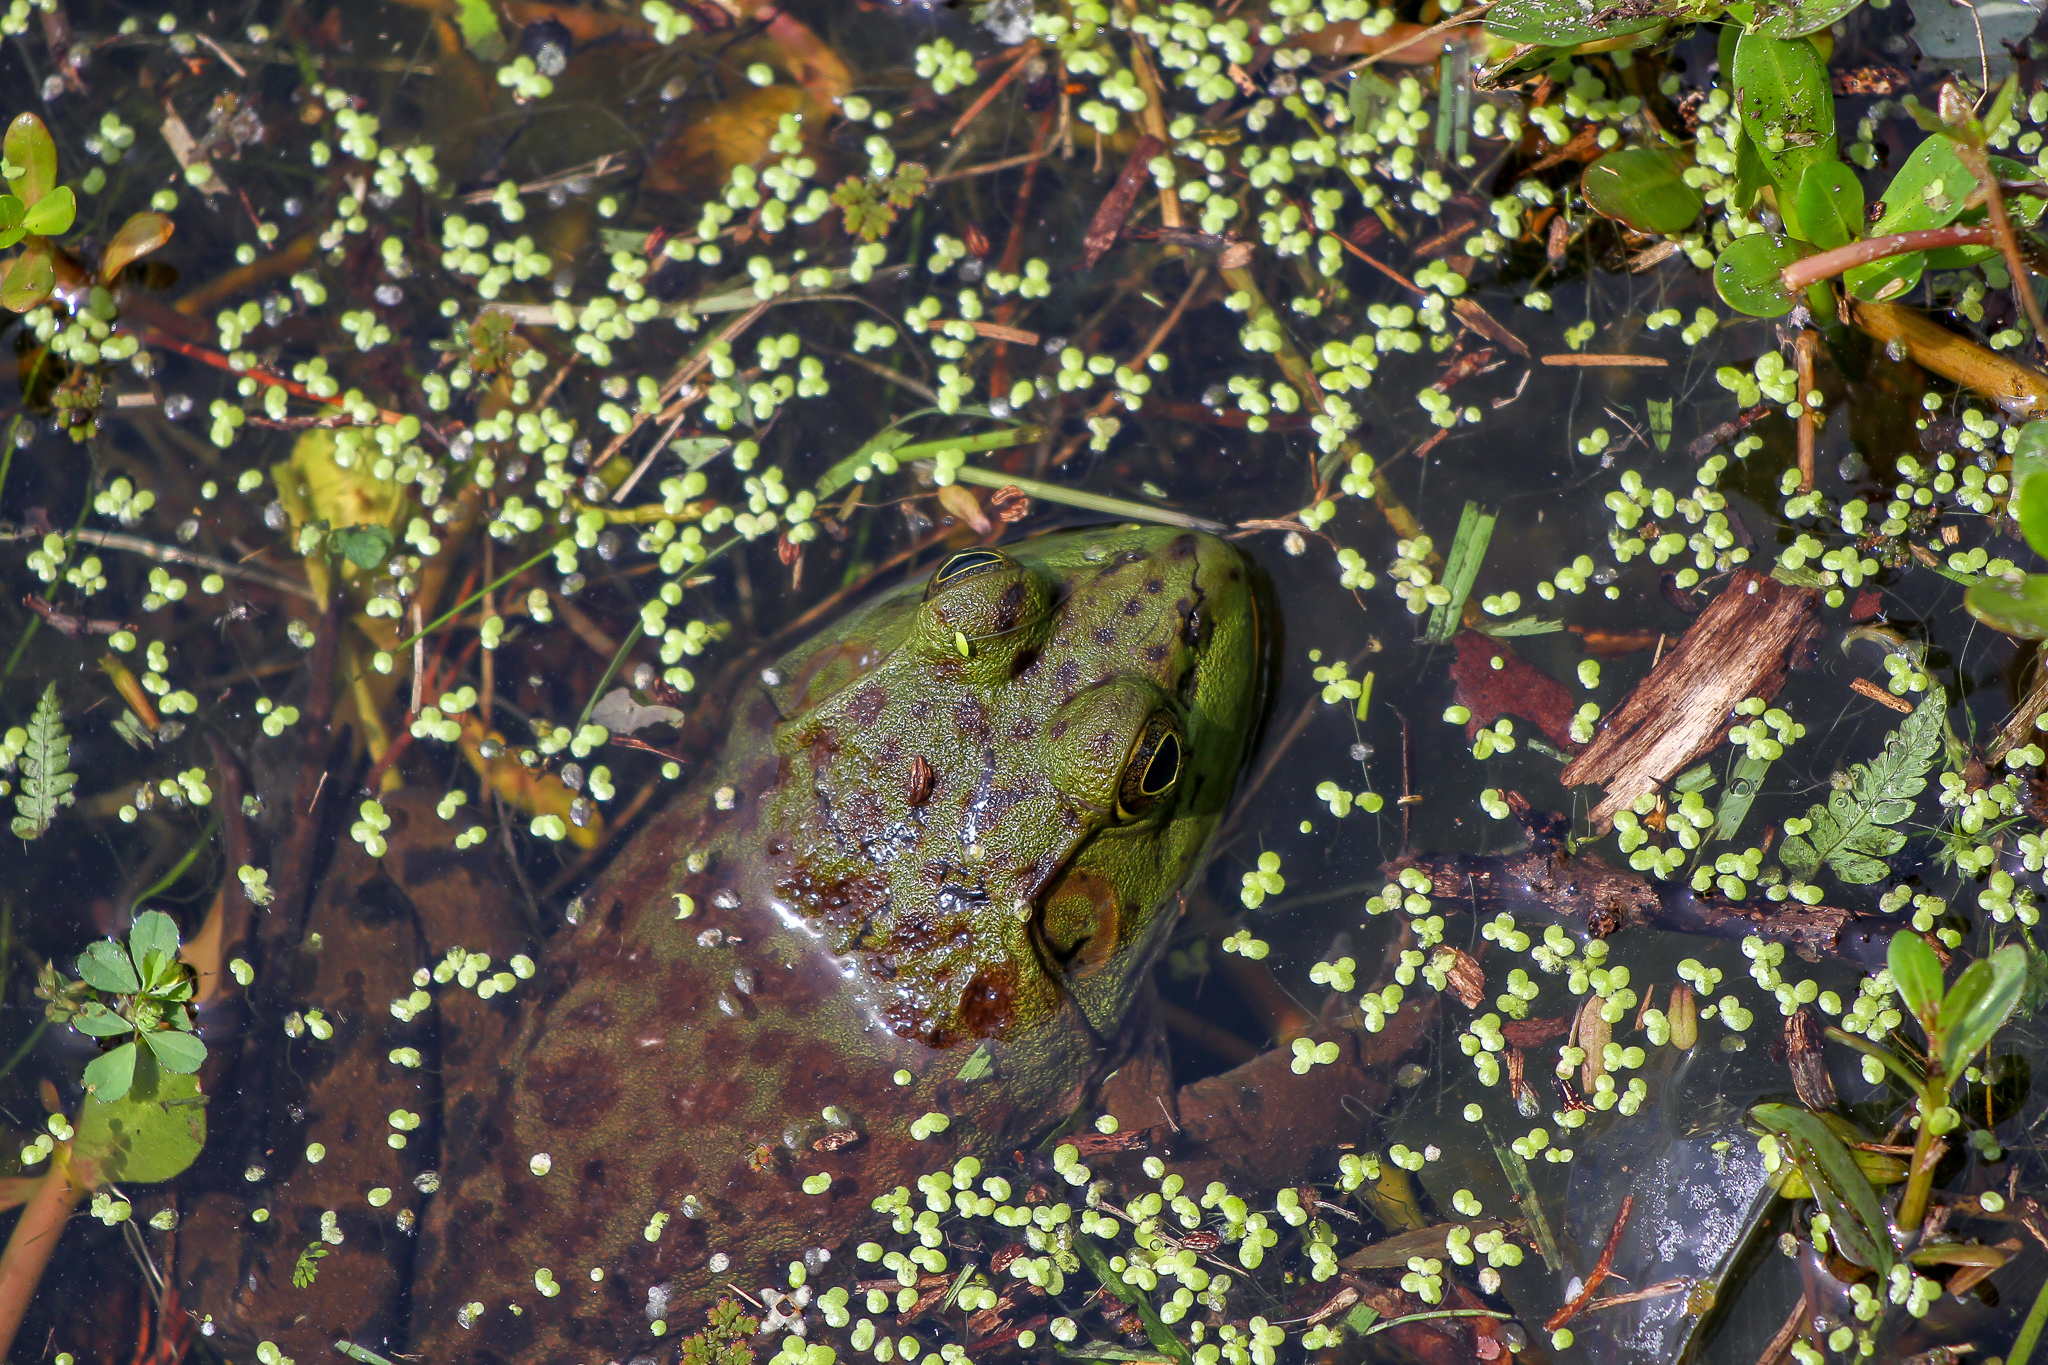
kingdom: Animalia
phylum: Chordata
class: Amphibia
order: Anura
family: Ranidae
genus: Lithobates
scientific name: Lithobates catesbeianus
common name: American bullfrog
